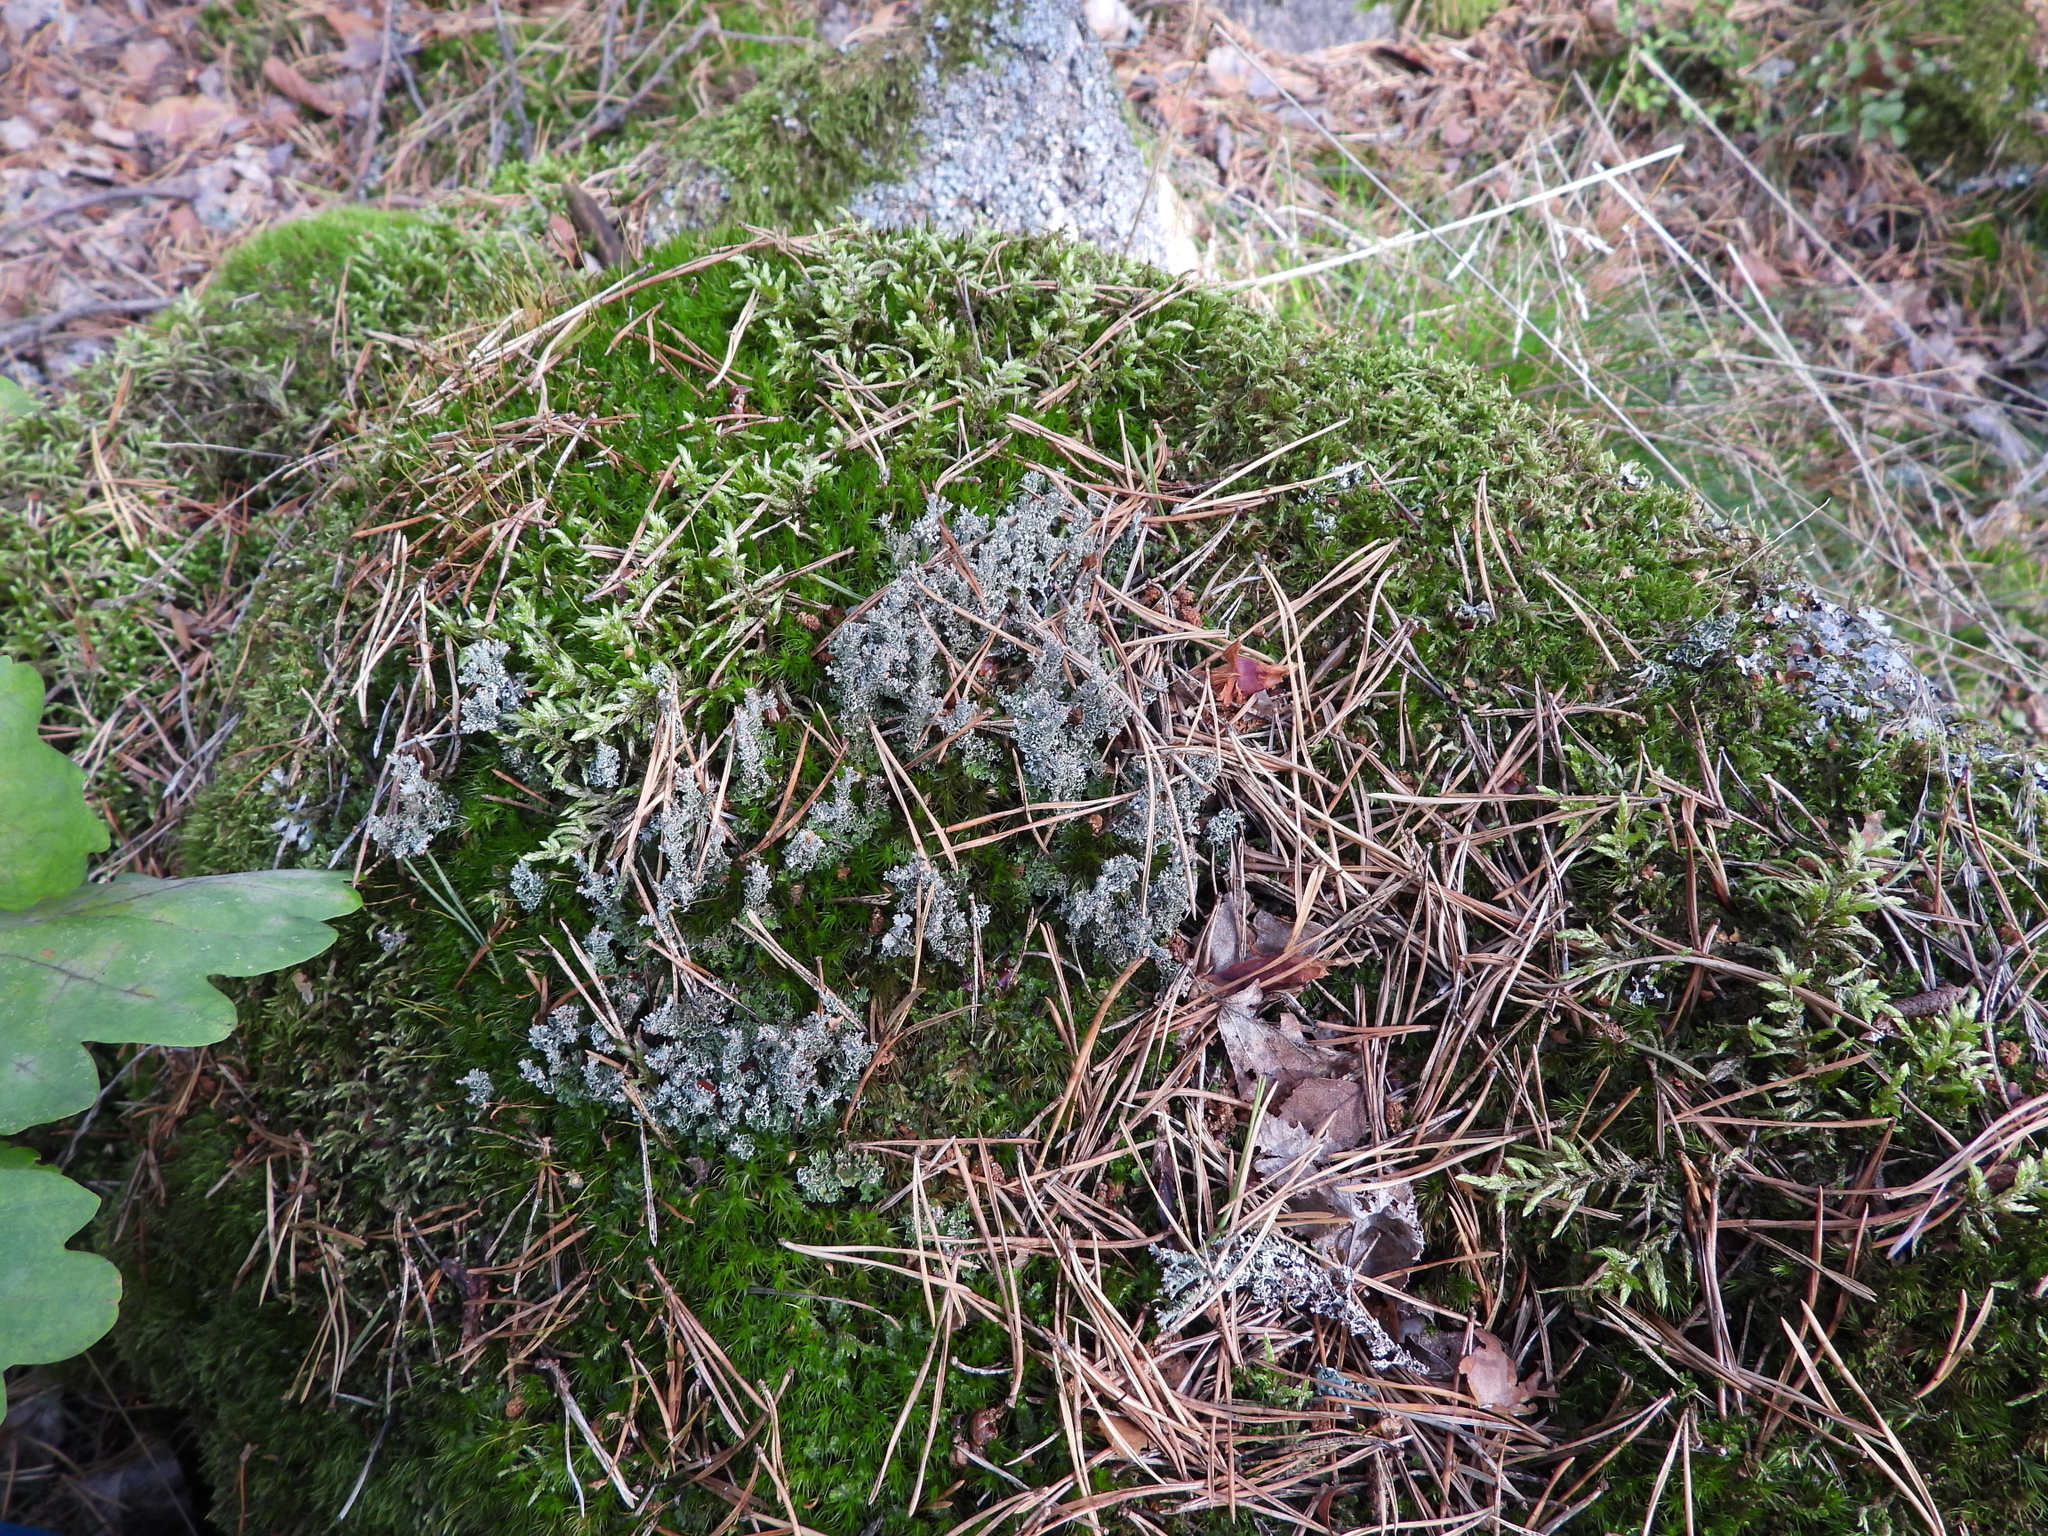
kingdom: Fungi
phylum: Ascomycota
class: Lecanoromycetes
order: Lecanorales
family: Cladoniaceae
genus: Cladonia
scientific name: Cladonia phyllophora
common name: Felt clad lichen
